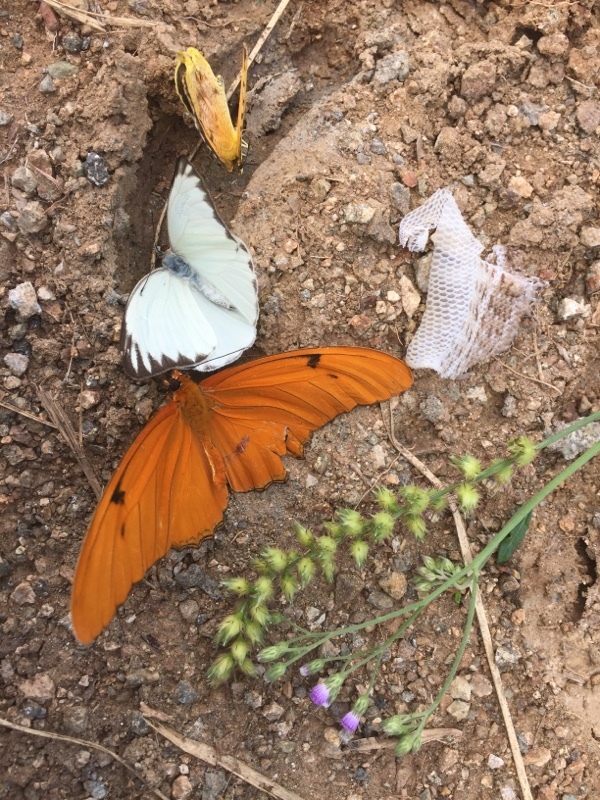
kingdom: Animalia
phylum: Arthropoda
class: Insecta
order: Lepidoptera
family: Pieridae
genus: Ascia
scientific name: Ascia monuste
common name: Great southern white
